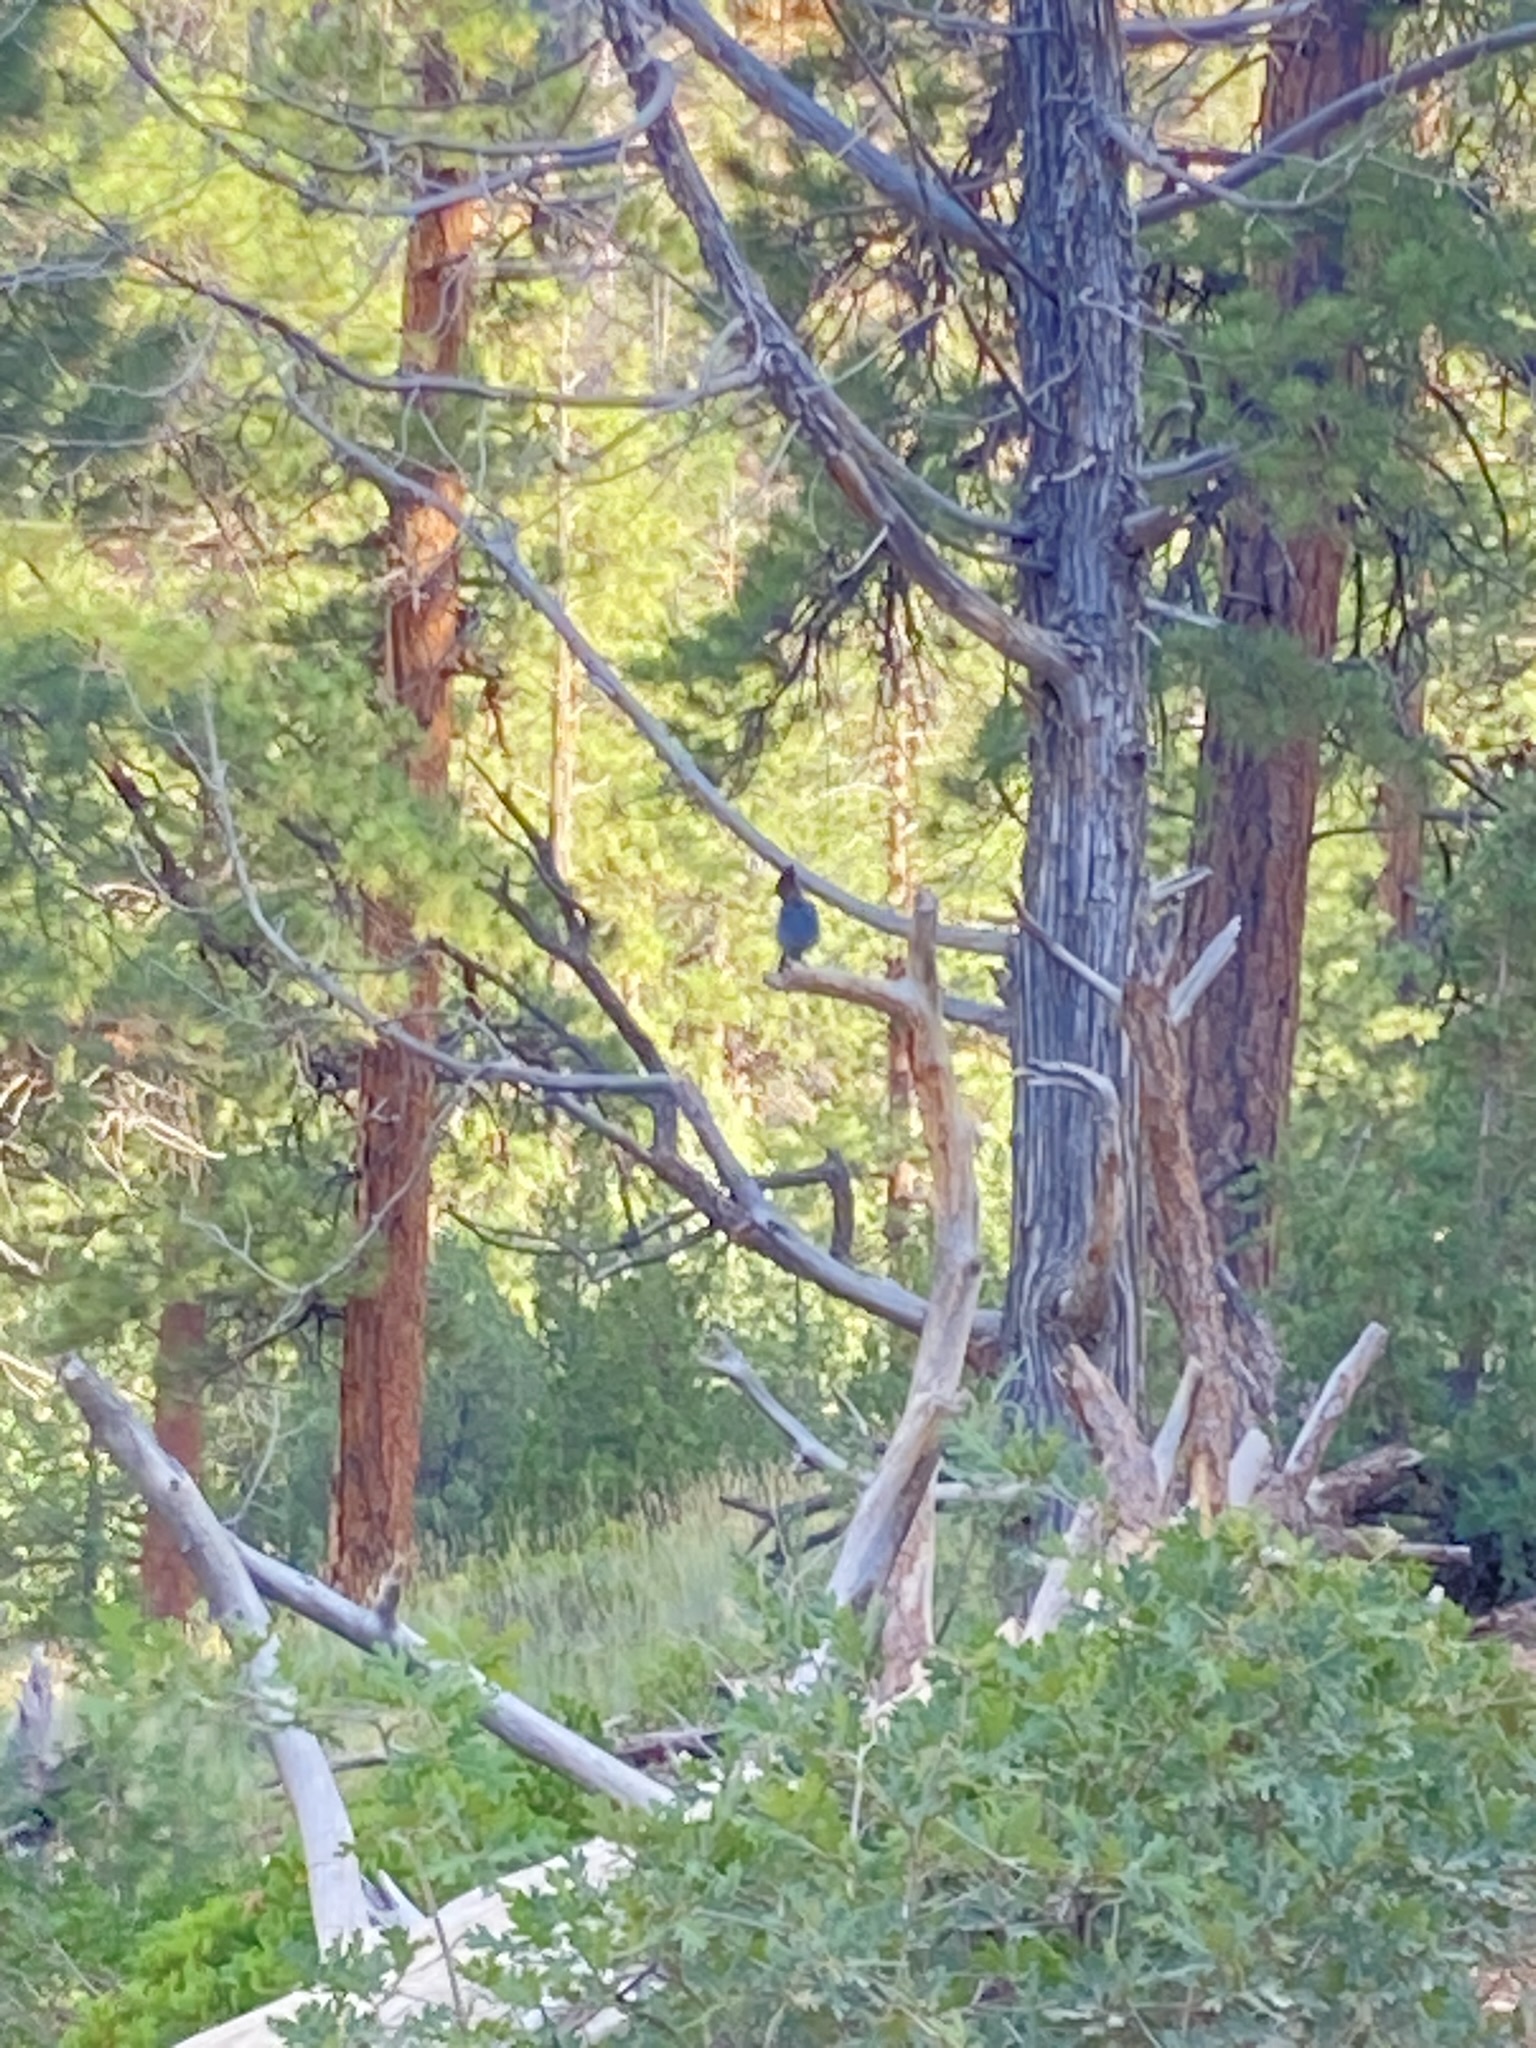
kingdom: Animalia
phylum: Chordata
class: Aves
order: Passeriformes
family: Corvidae
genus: Cyanocitta
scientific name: Cyanocitta stelleri
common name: Steller's jay
